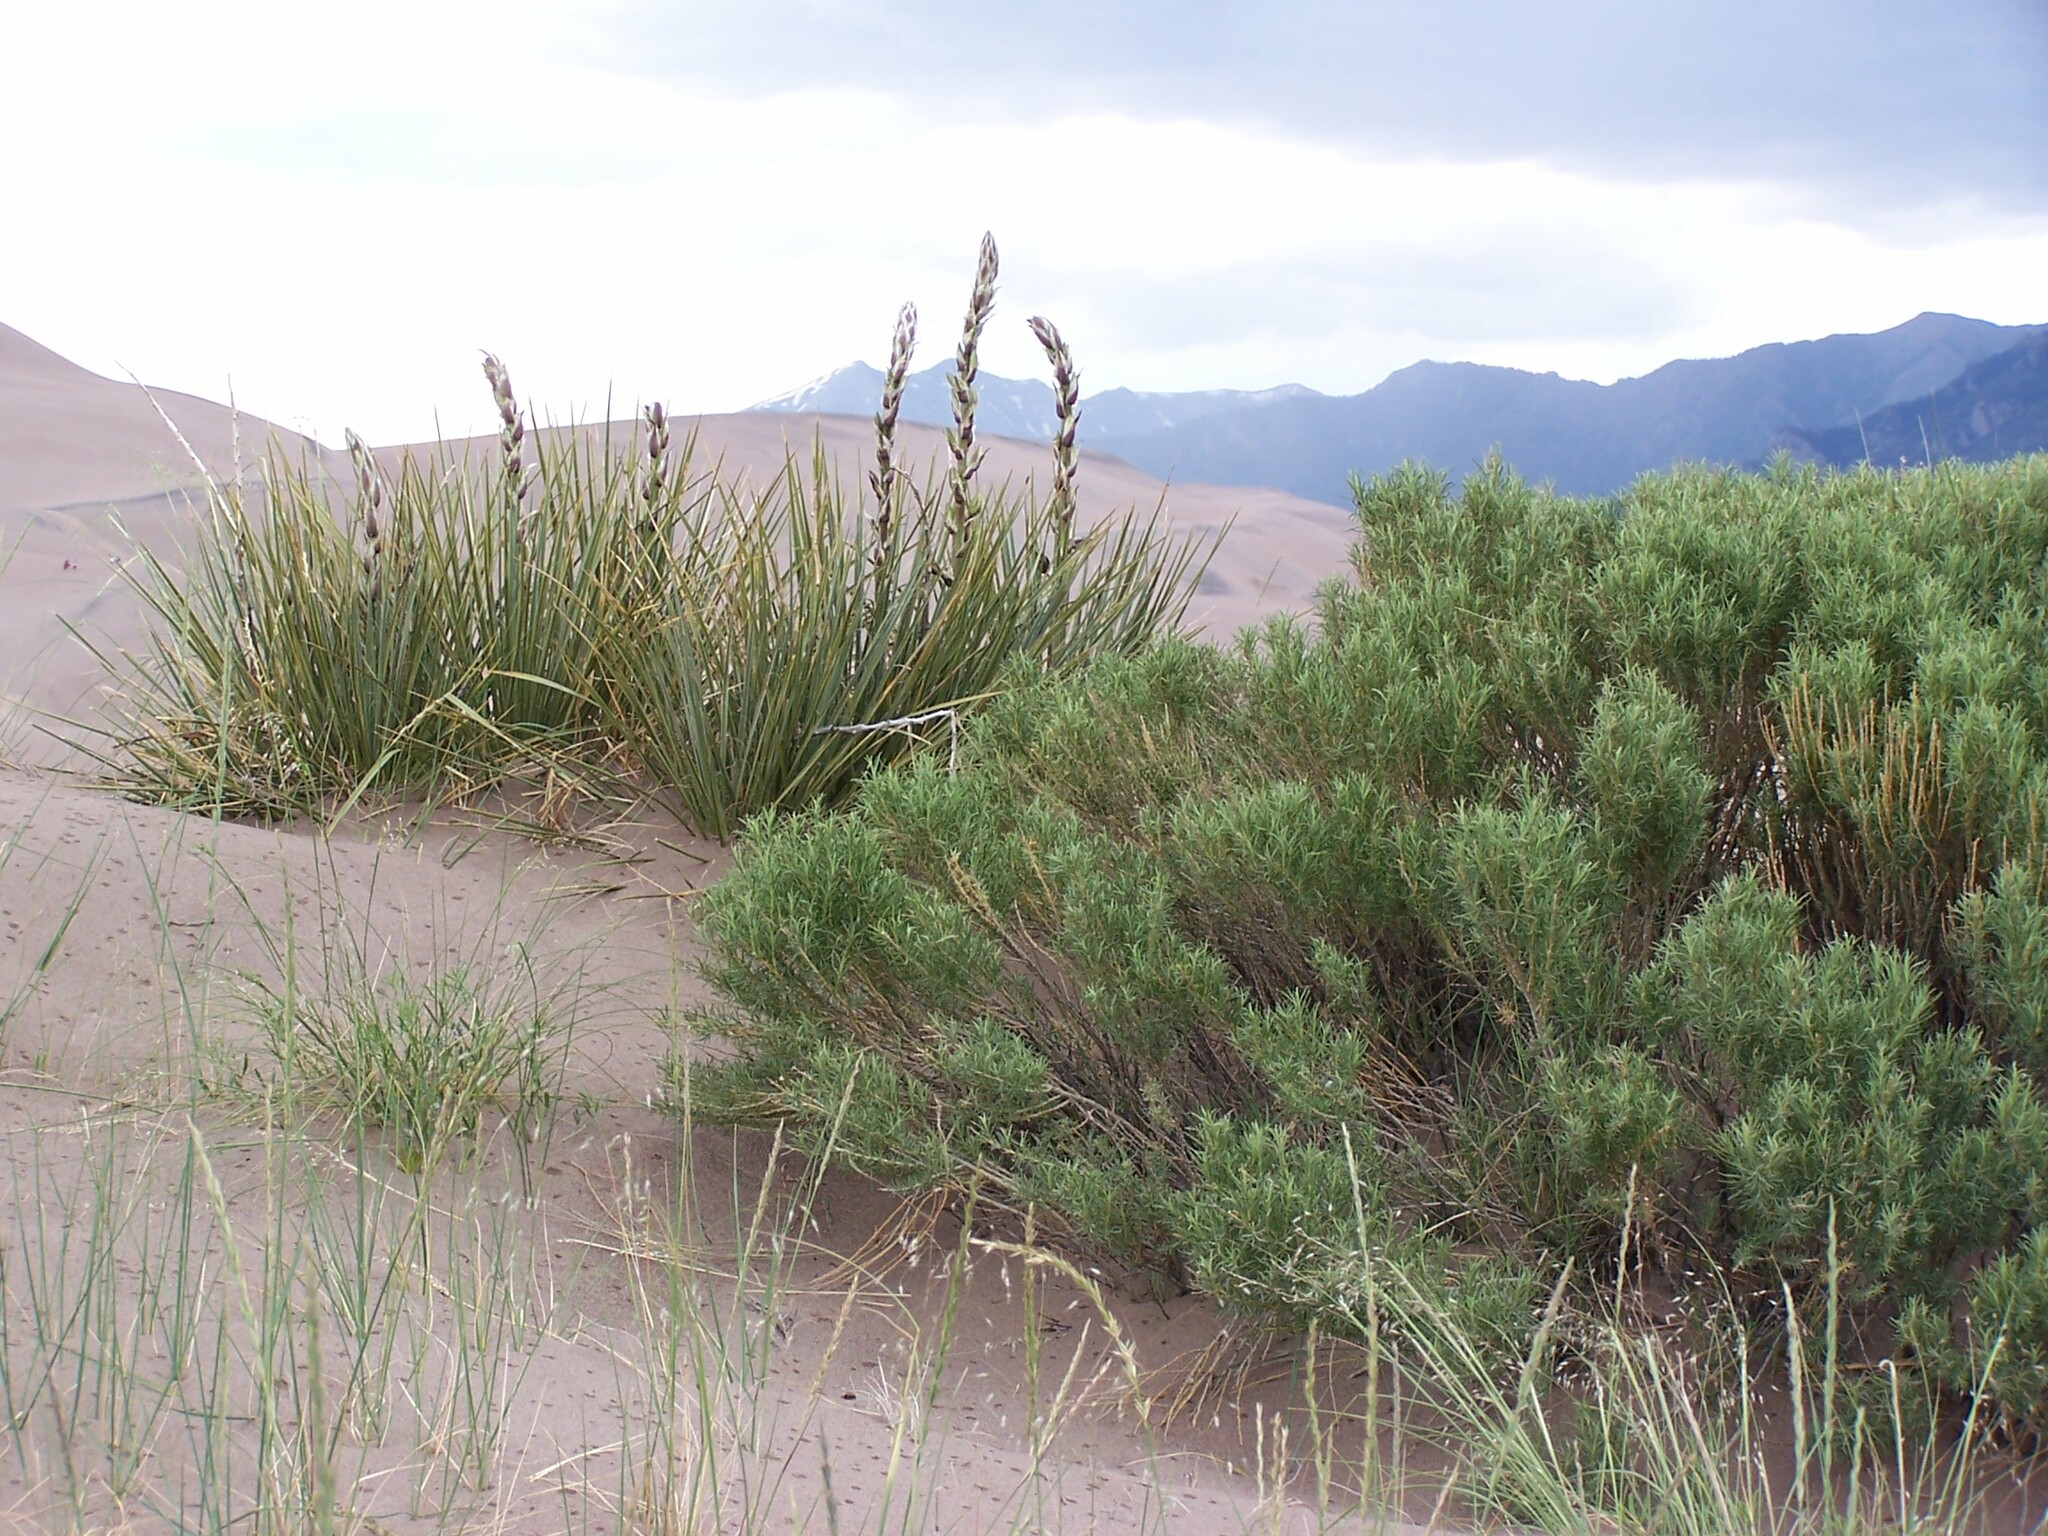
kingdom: Plantae
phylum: Tracheophyta
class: Liliopsida
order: Asparagales
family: Asparagaceae
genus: Yucca
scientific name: Yucca glauca
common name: Great plains yucca
